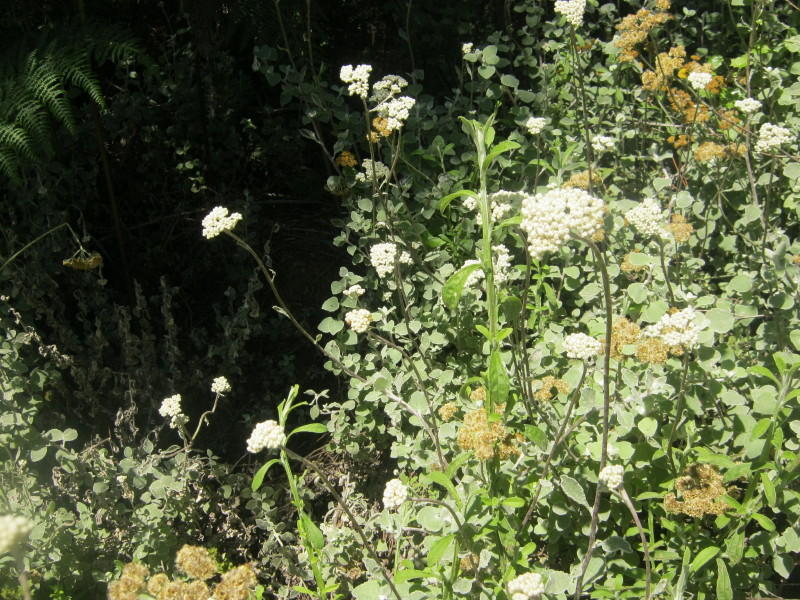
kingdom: Plantae
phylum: Tracheophyta
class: Magnoliopsida
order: Asterales
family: Asteraceae
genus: Helichrysum
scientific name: Helichrysum petiolare
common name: Licorice-plant
